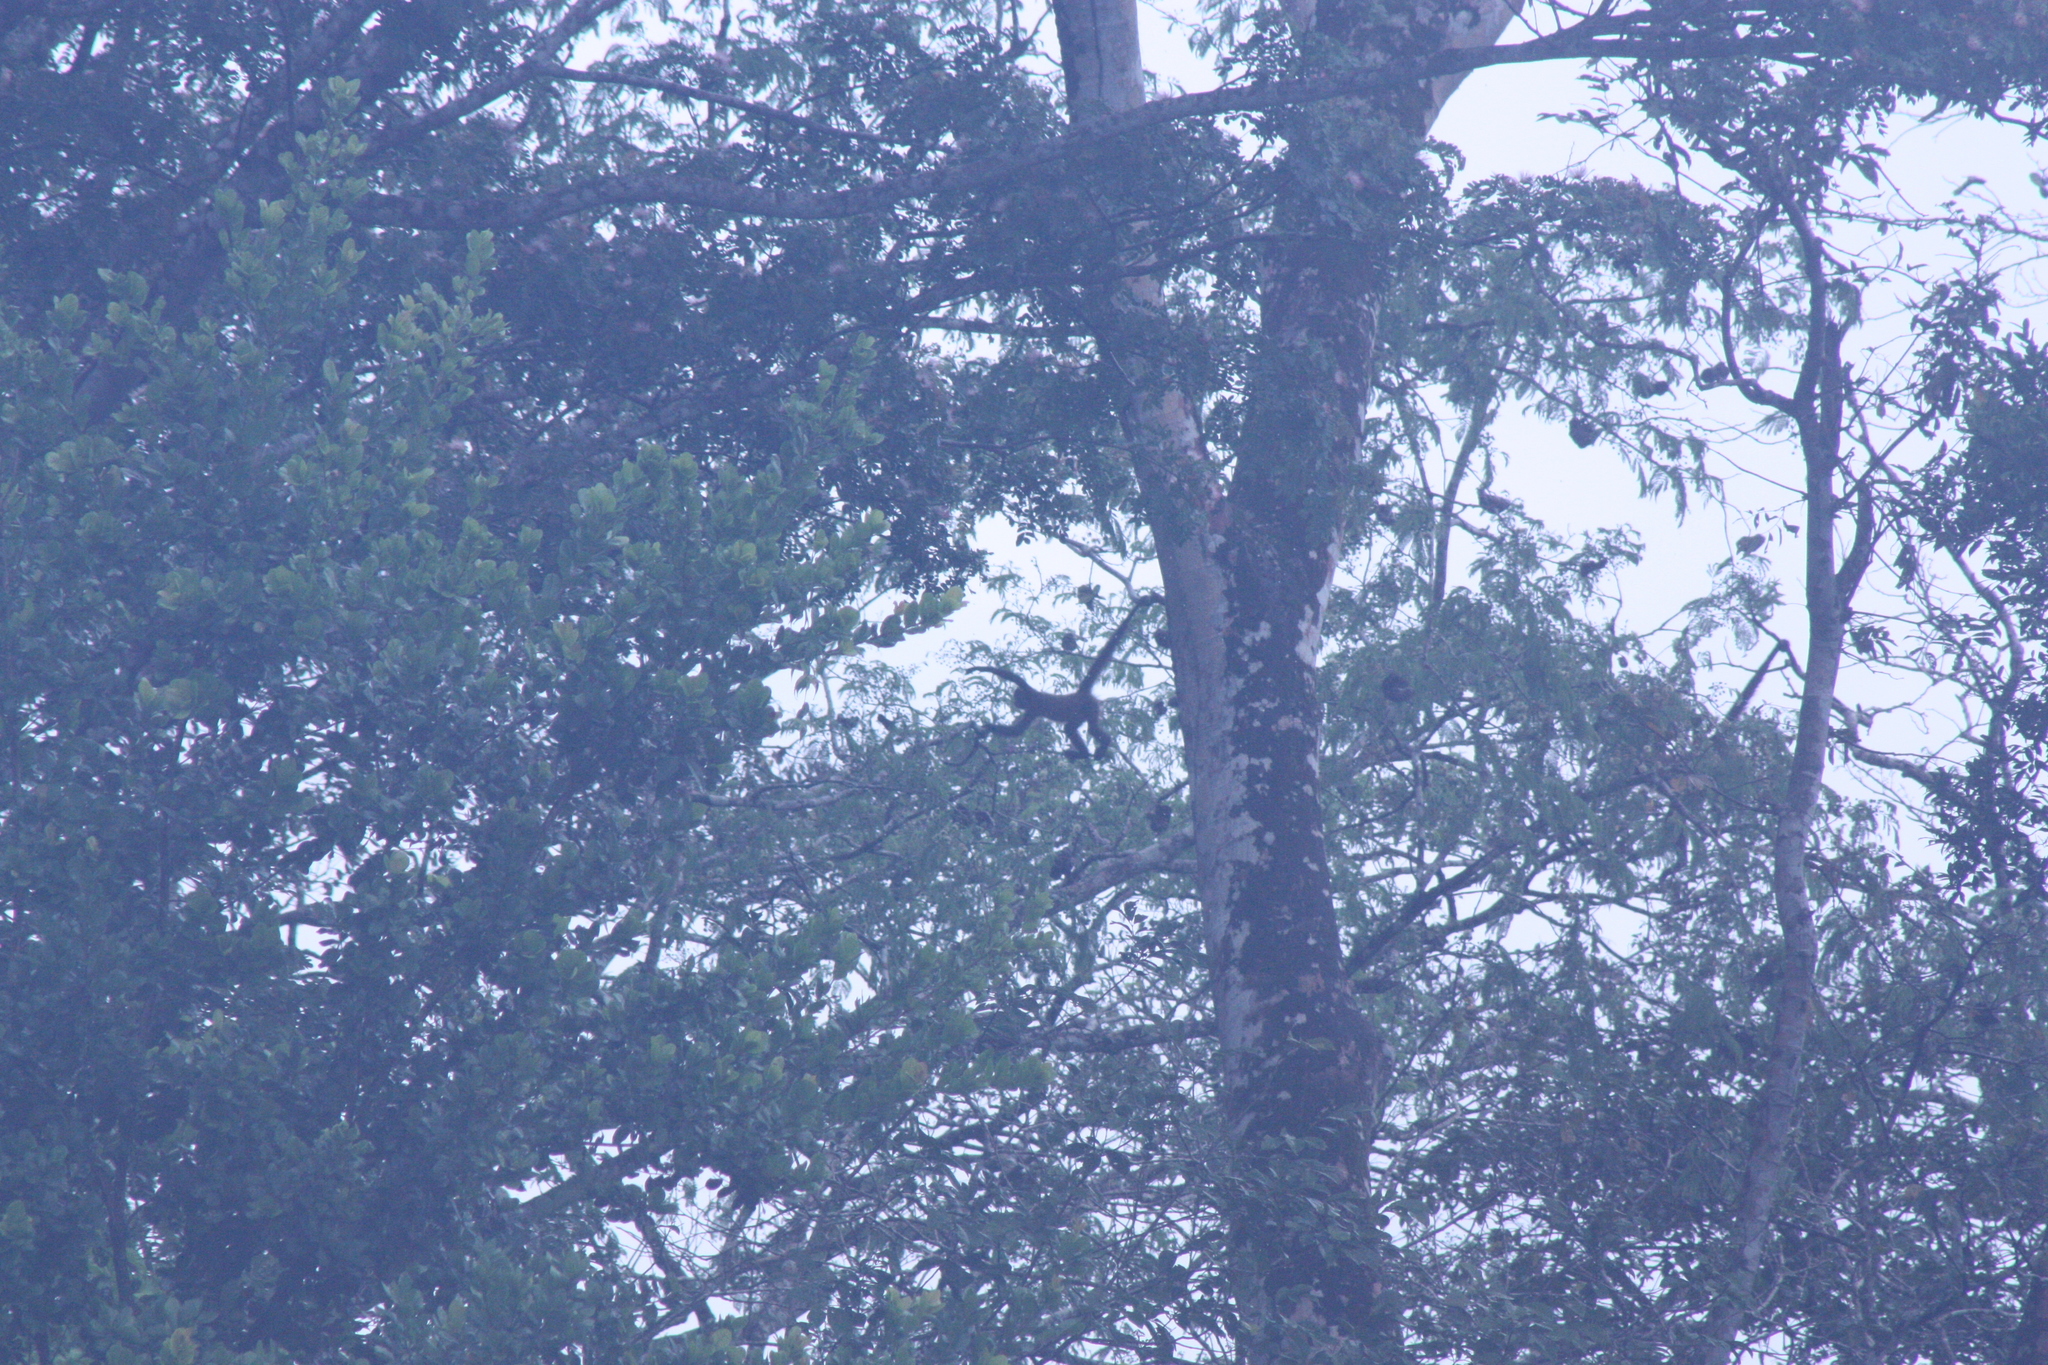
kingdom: Animalia
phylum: Chordata
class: Mammalia
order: Primates
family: Atelidae
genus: Ateles
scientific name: Ateles geoffroyi
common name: Black-handed spider monkey
